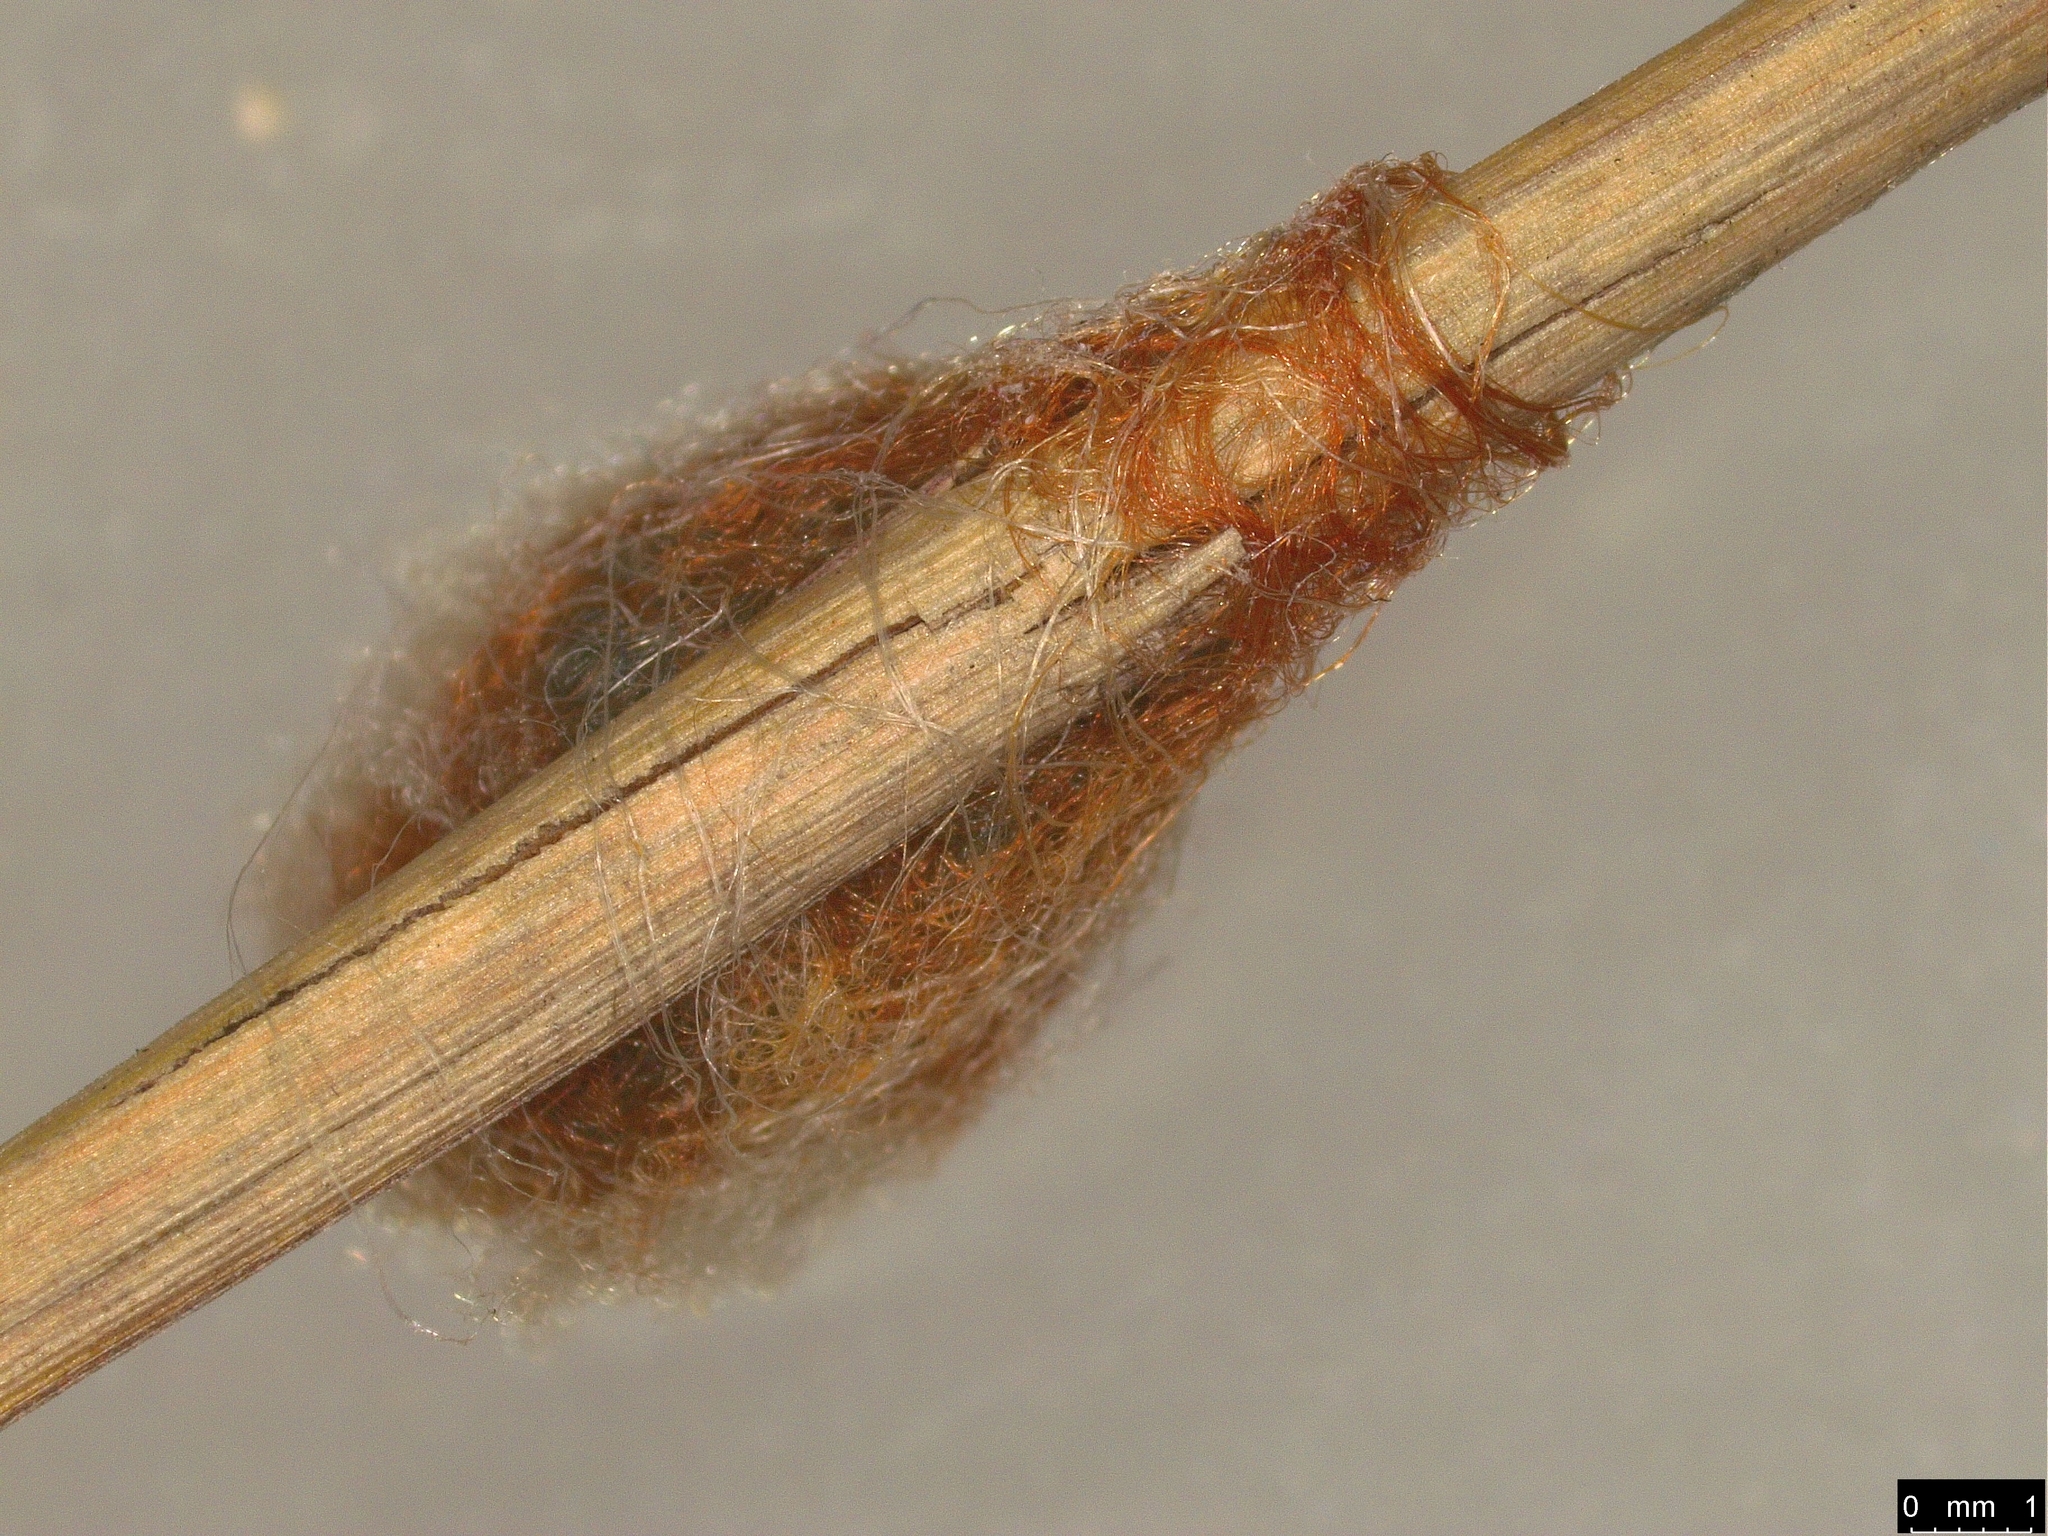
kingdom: Animalia
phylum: Arthropoda
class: Arachnida
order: Araneae
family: Araneidae
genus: Austracantha
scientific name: Austracantha minax
